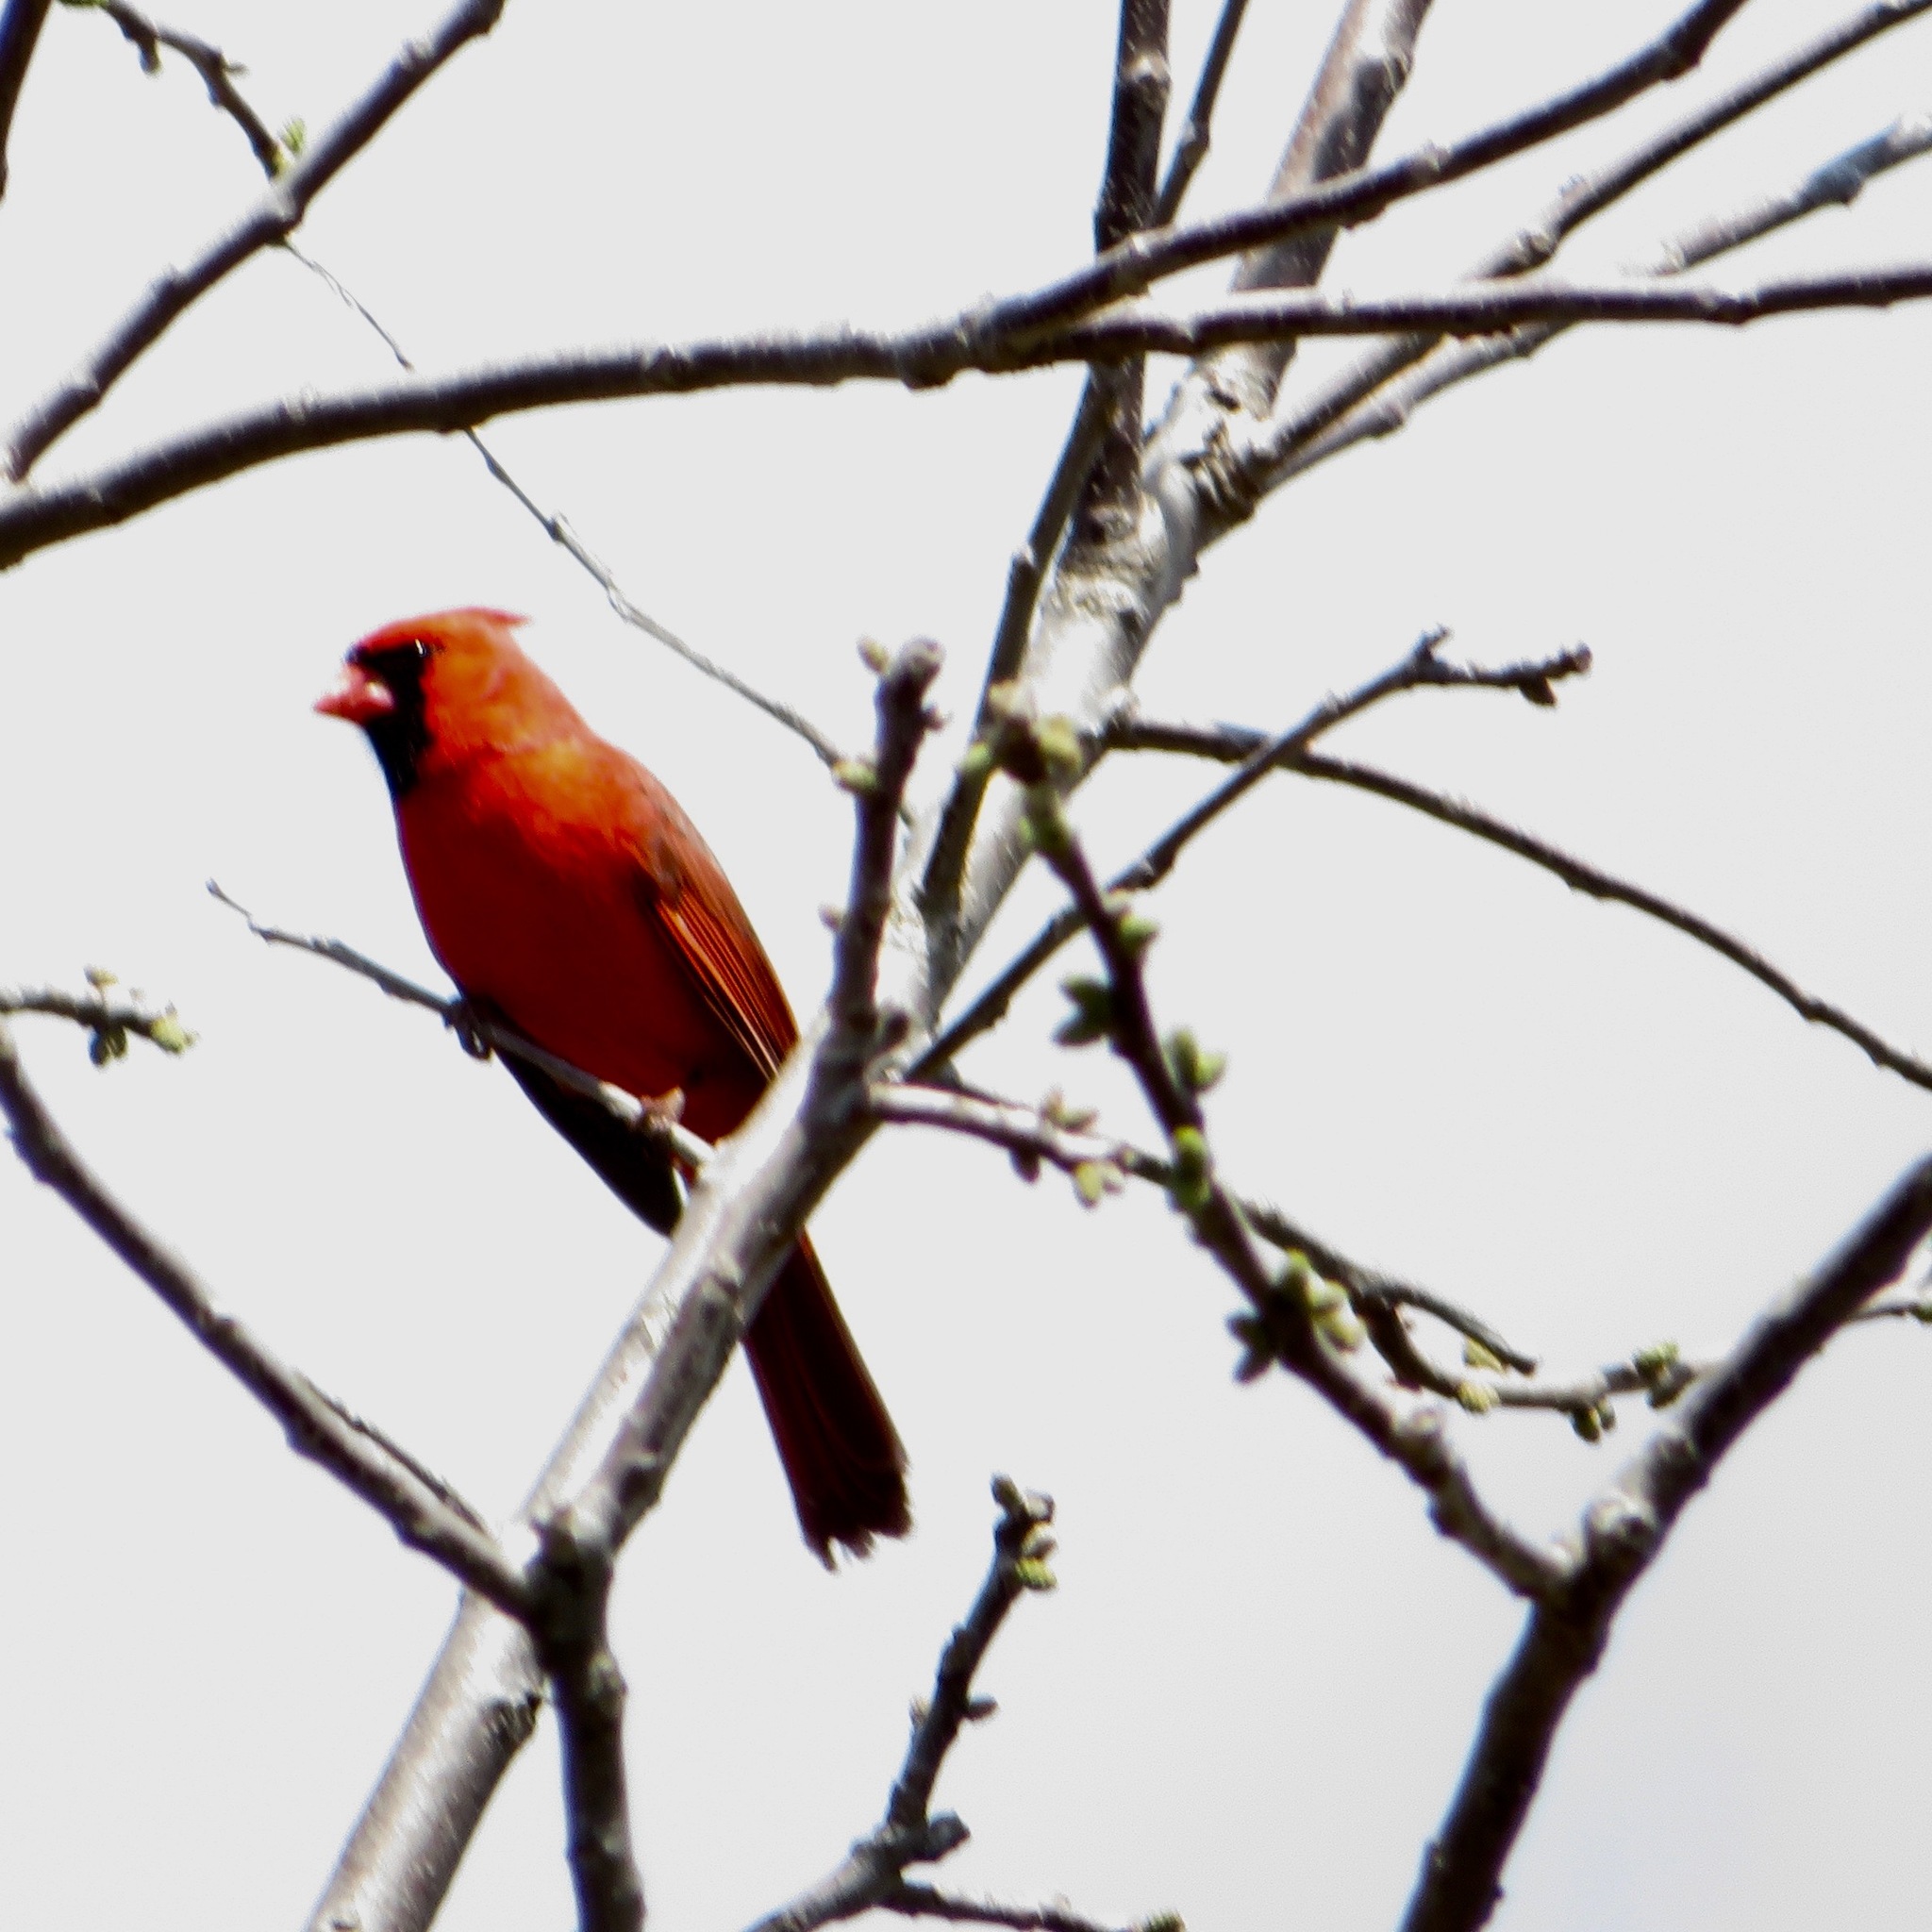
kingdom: Animalia
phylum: Chordata
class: Aves
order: Passeriformes
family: Cardinalidae
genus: Cardinalis
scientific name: Cardinalis cardinalis
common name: Northern cardinal
